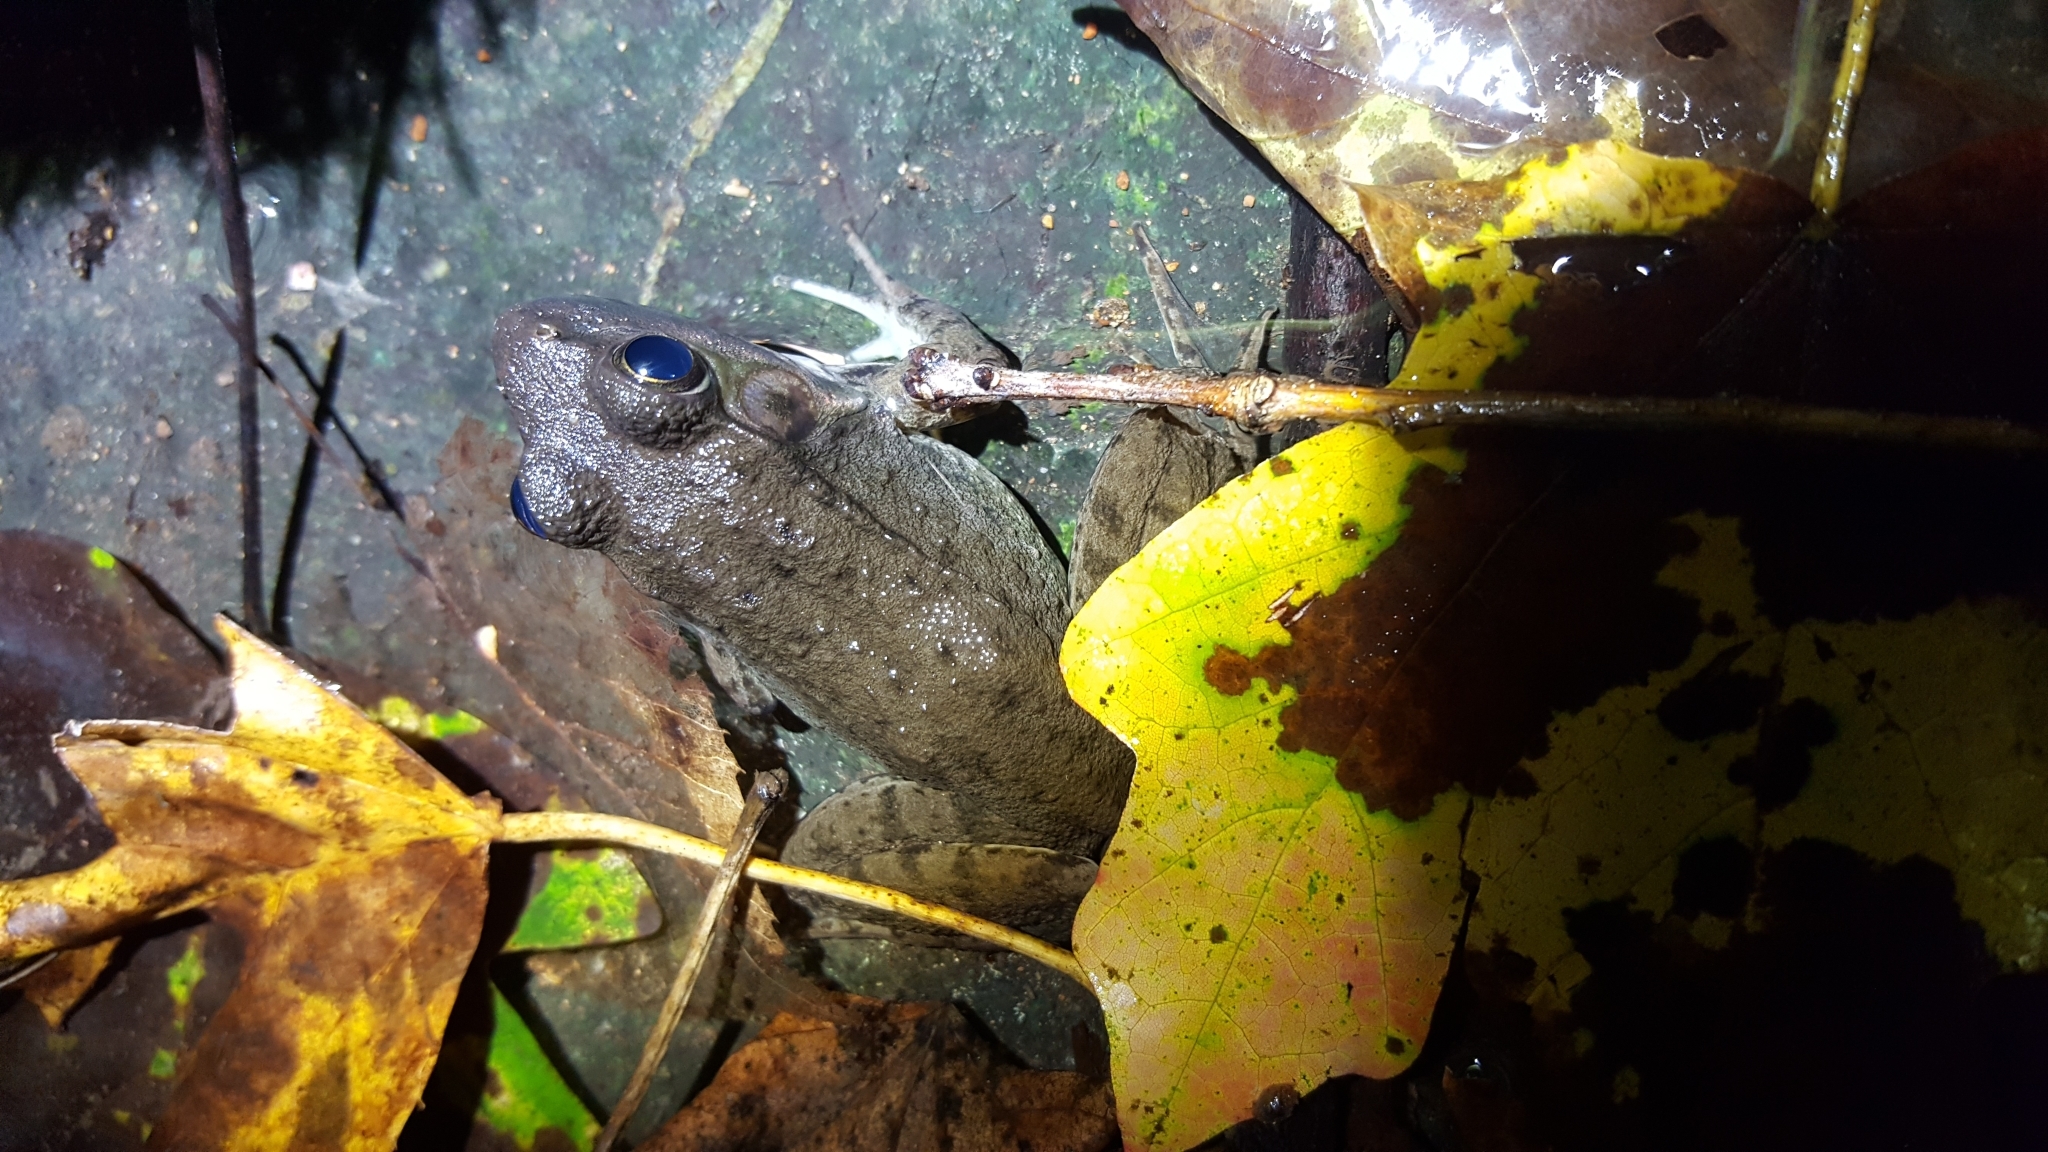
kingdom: Animalia
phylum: Chordata
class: Amphibia
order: Anura
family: Ranidae
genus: Lithobates
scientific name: Lithobates clamitans
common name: Green frog
